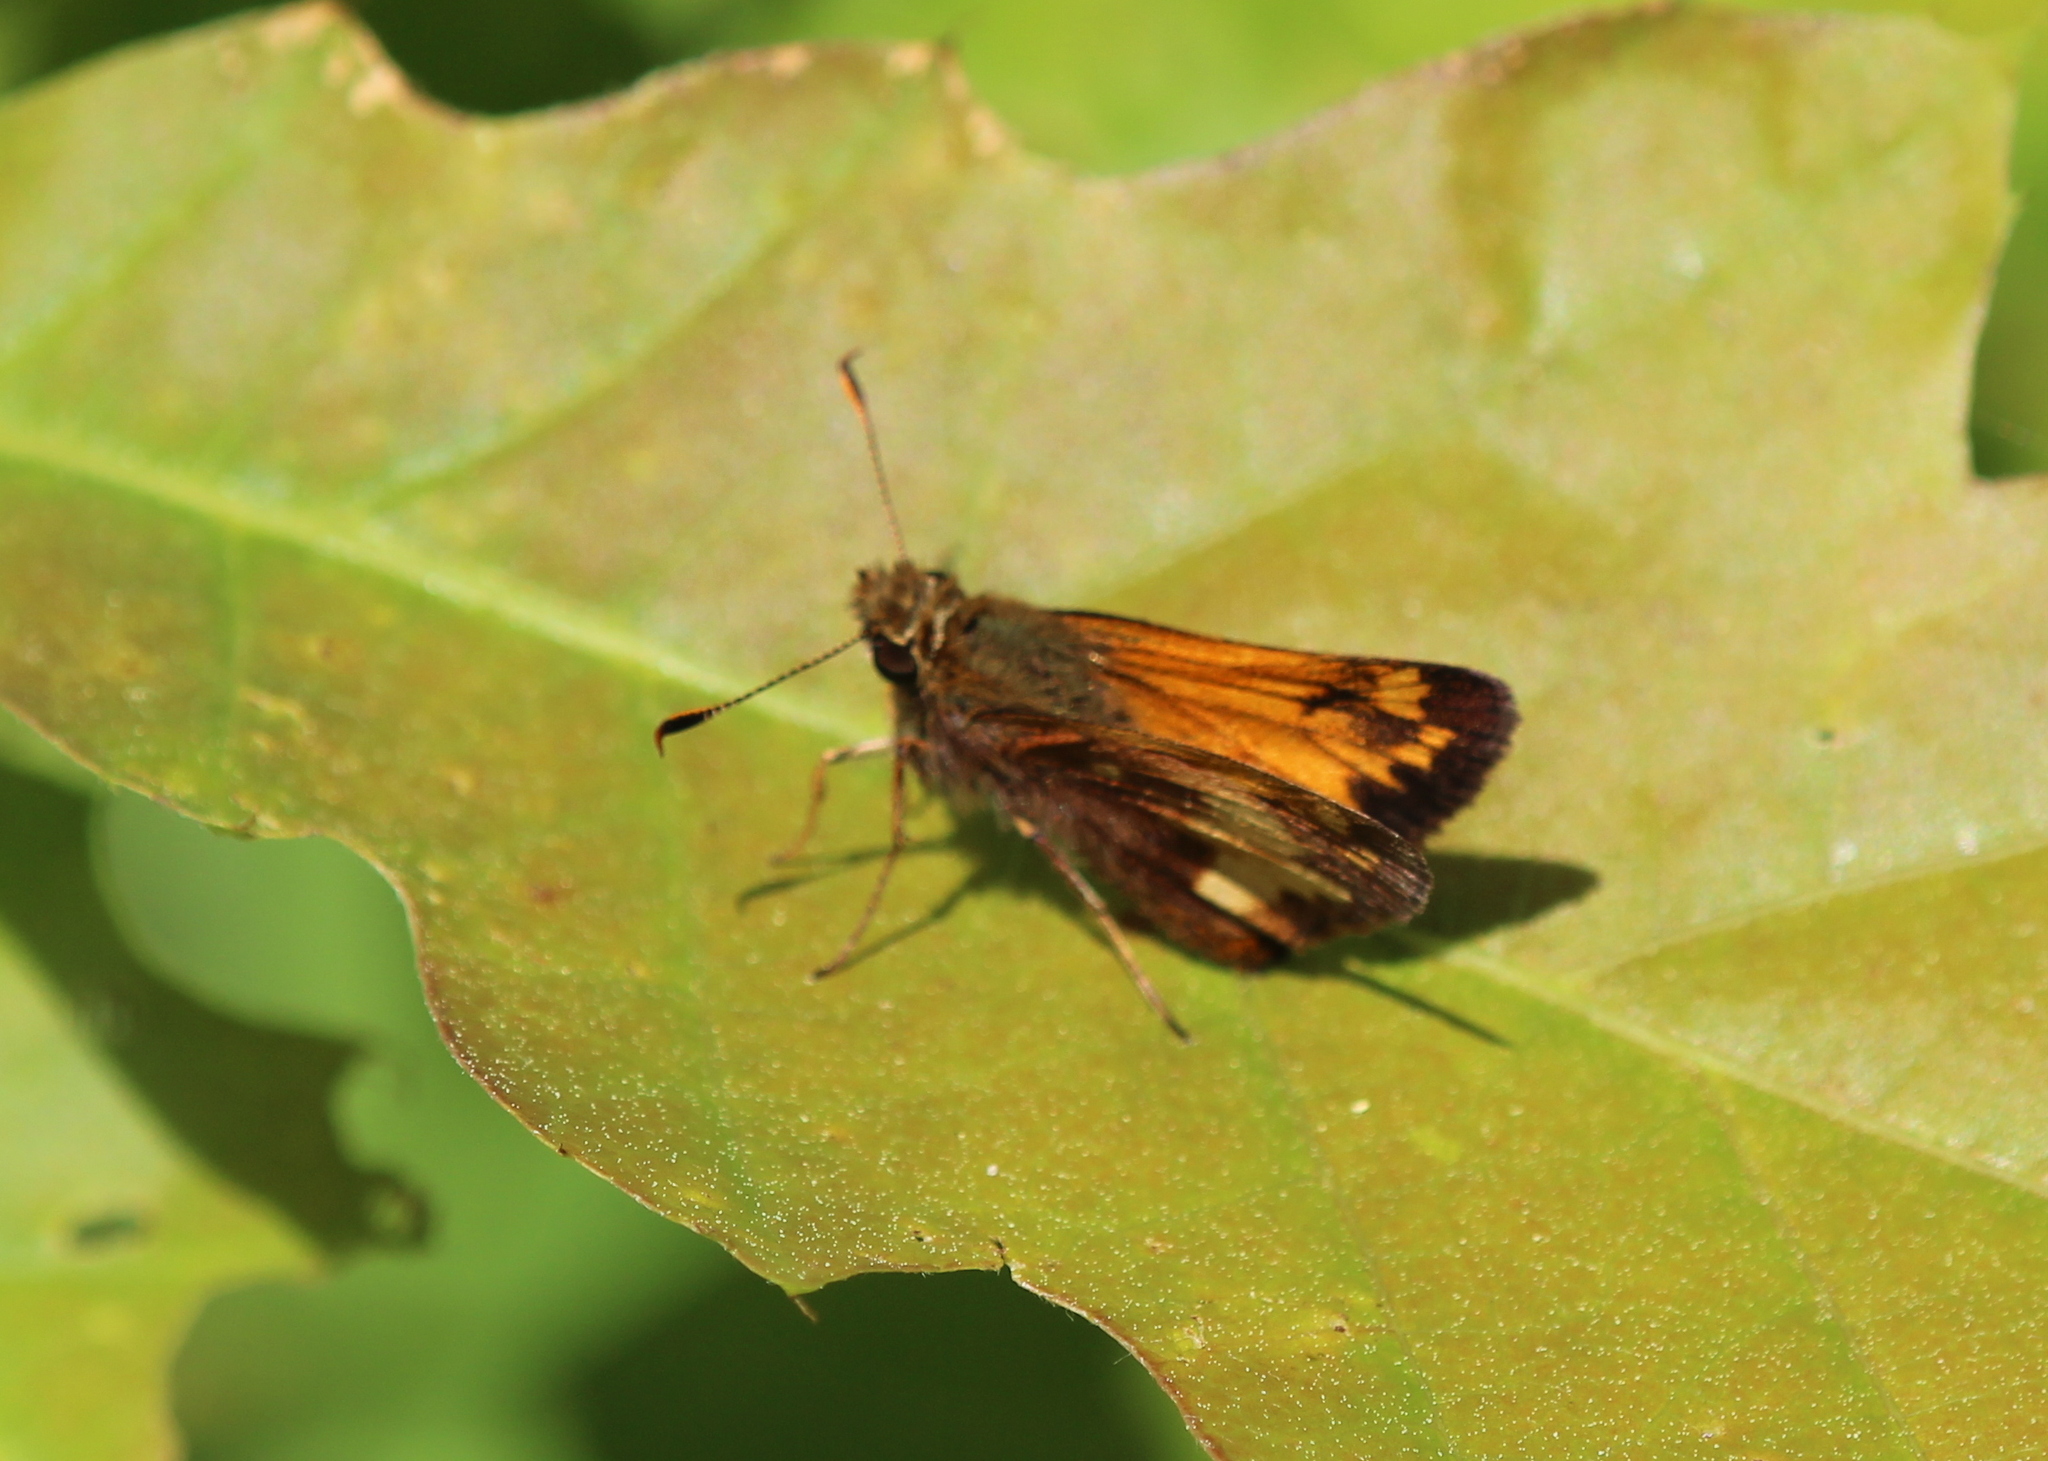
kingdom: Animalia
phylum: Arthropoda
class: Insecta
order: Lepidoptera
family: Hesperiidae
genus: Lon
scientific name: Lon hobomok
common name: Hobomok skipper
